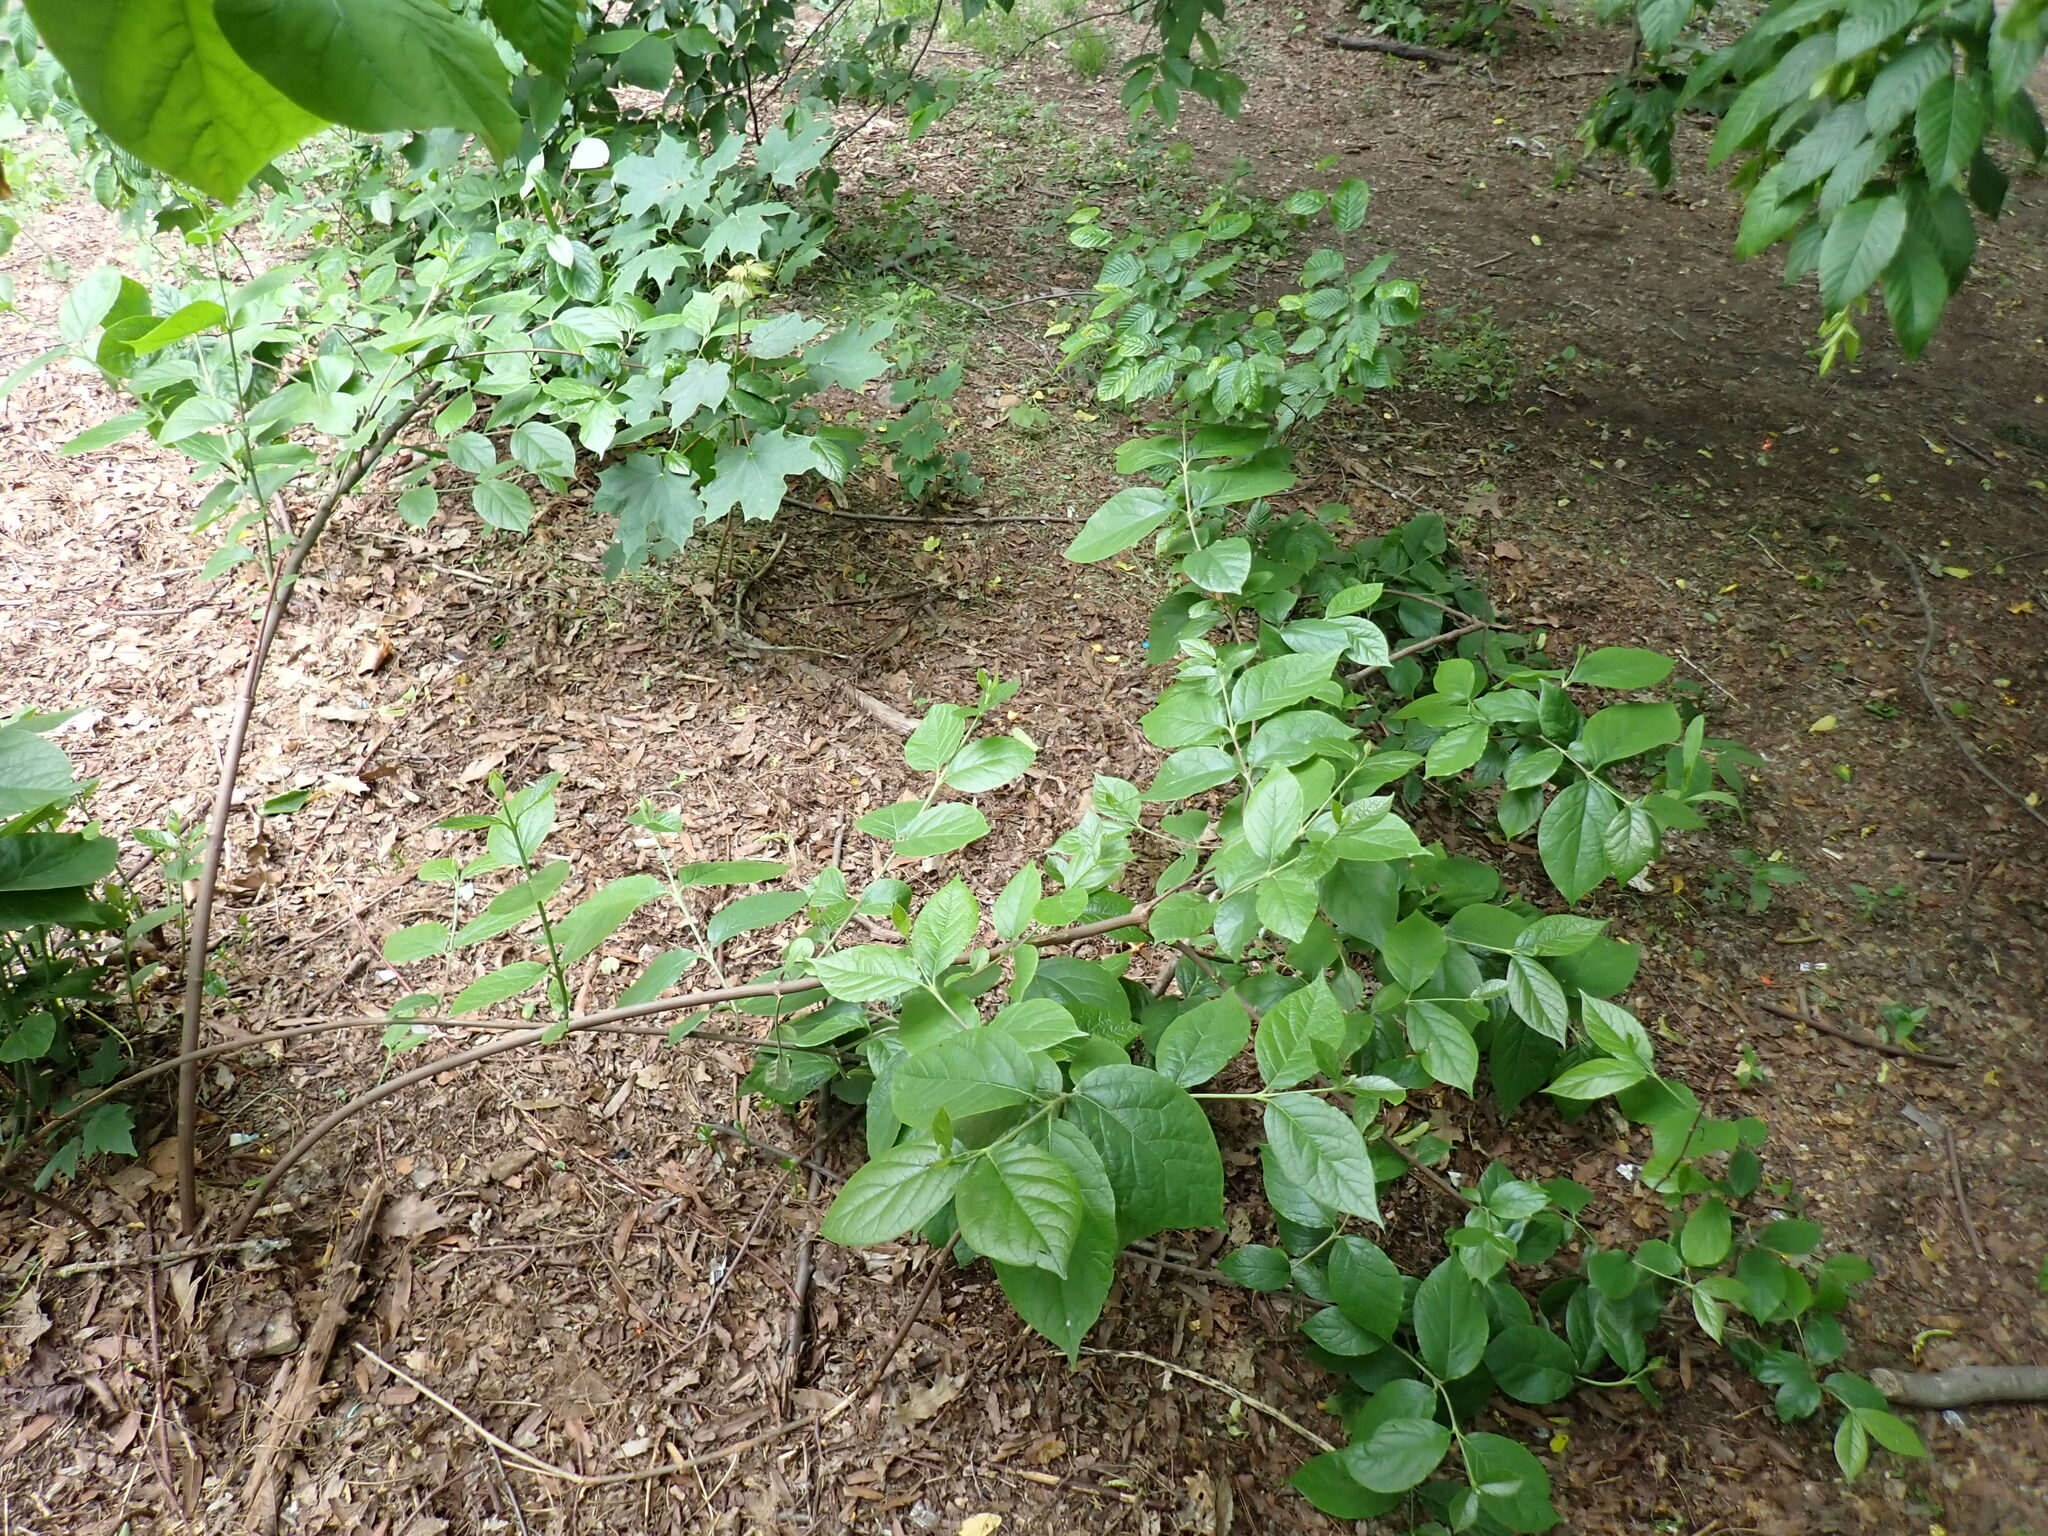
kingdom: Plantae
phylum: Tracheophyta
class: Magnoliopsida
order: Laurales
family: Calycanthaceae
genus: Calycanthus
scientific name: Calycanthus floridus
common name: Carolina-allspice
